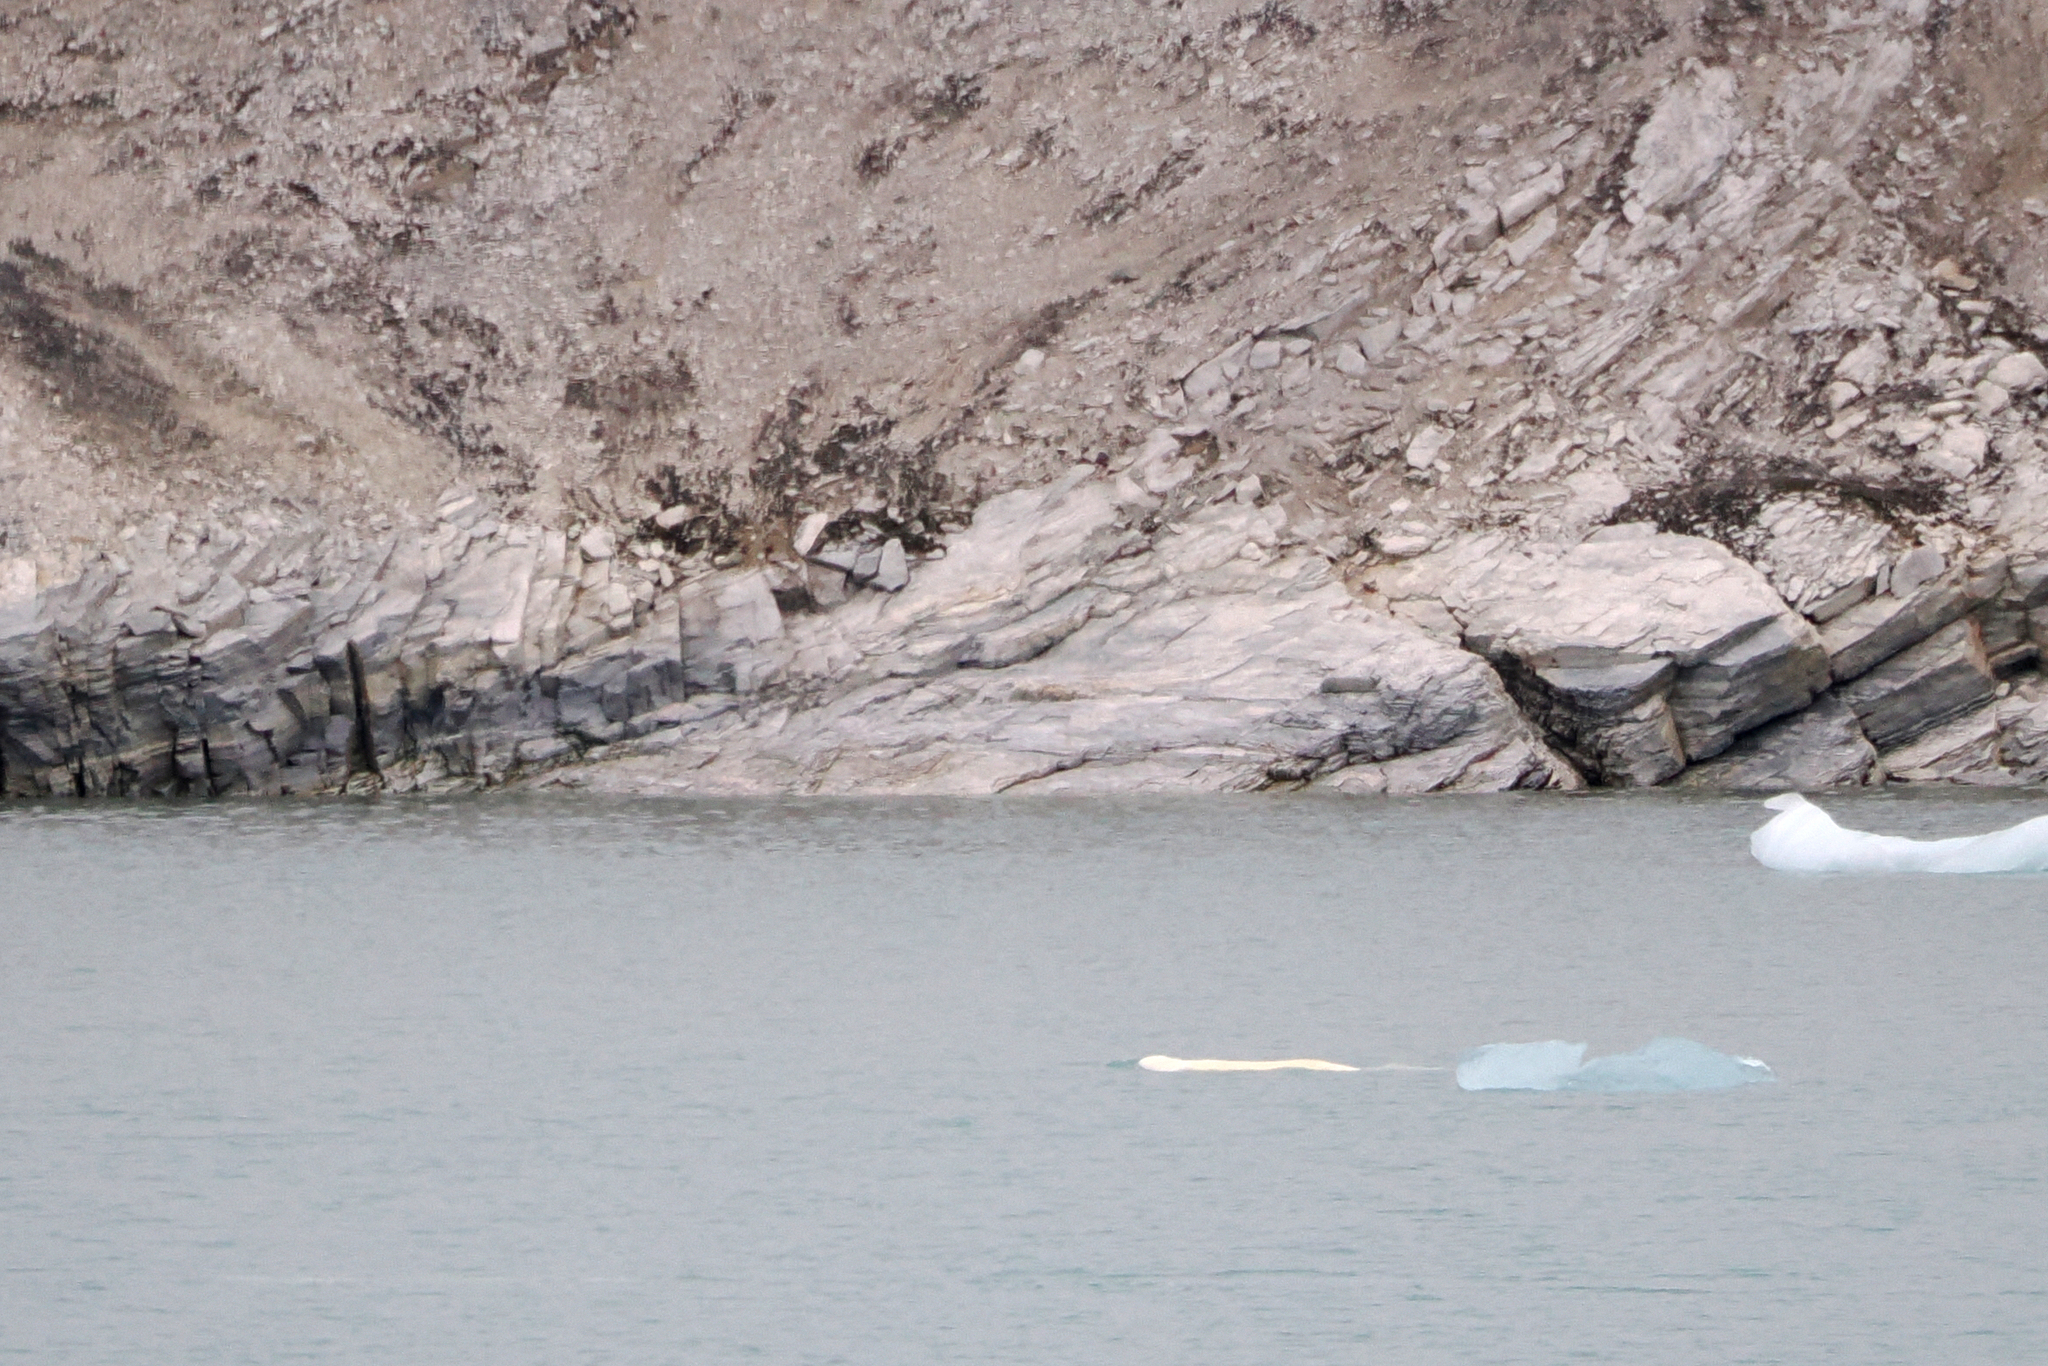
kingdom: Animalia
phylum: Chordata
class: Mammalia
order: Cetacea
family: Monodontidae
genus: Delphinapterus
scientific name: Delphinapterus leucas
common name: Beluga
